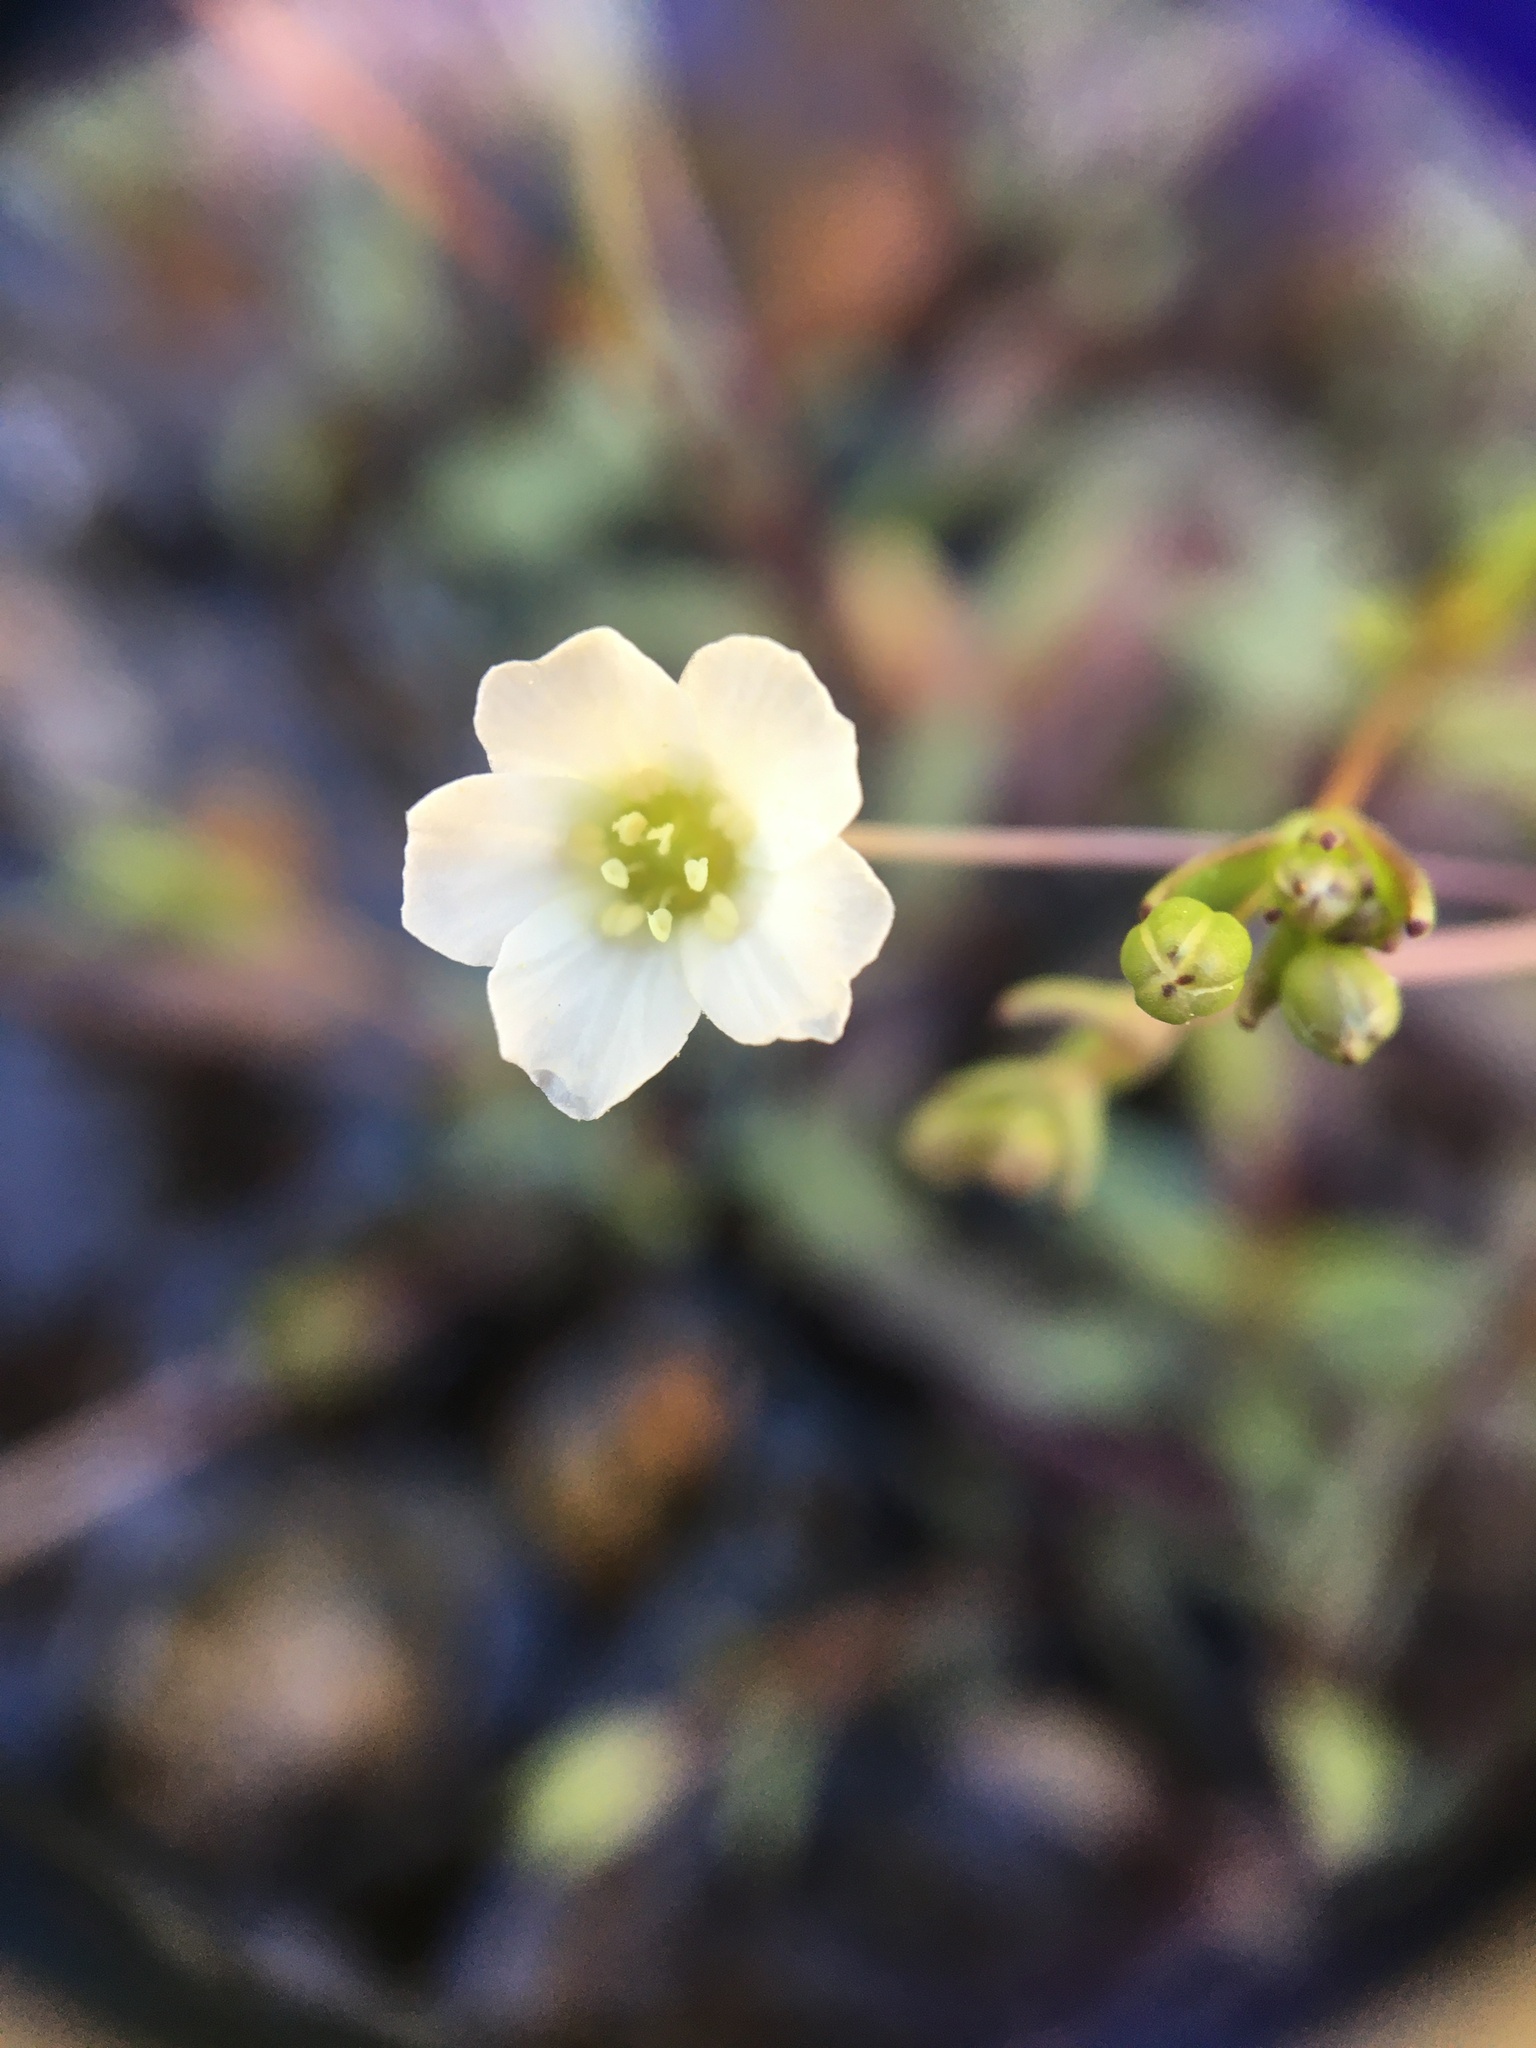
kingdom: Plantae
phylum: Tracheophyta
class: Magnoliopsida
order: Caryophyllales
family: Caryophyllaceae
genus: Geocarpon
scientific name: Geocarpon uniflorum
